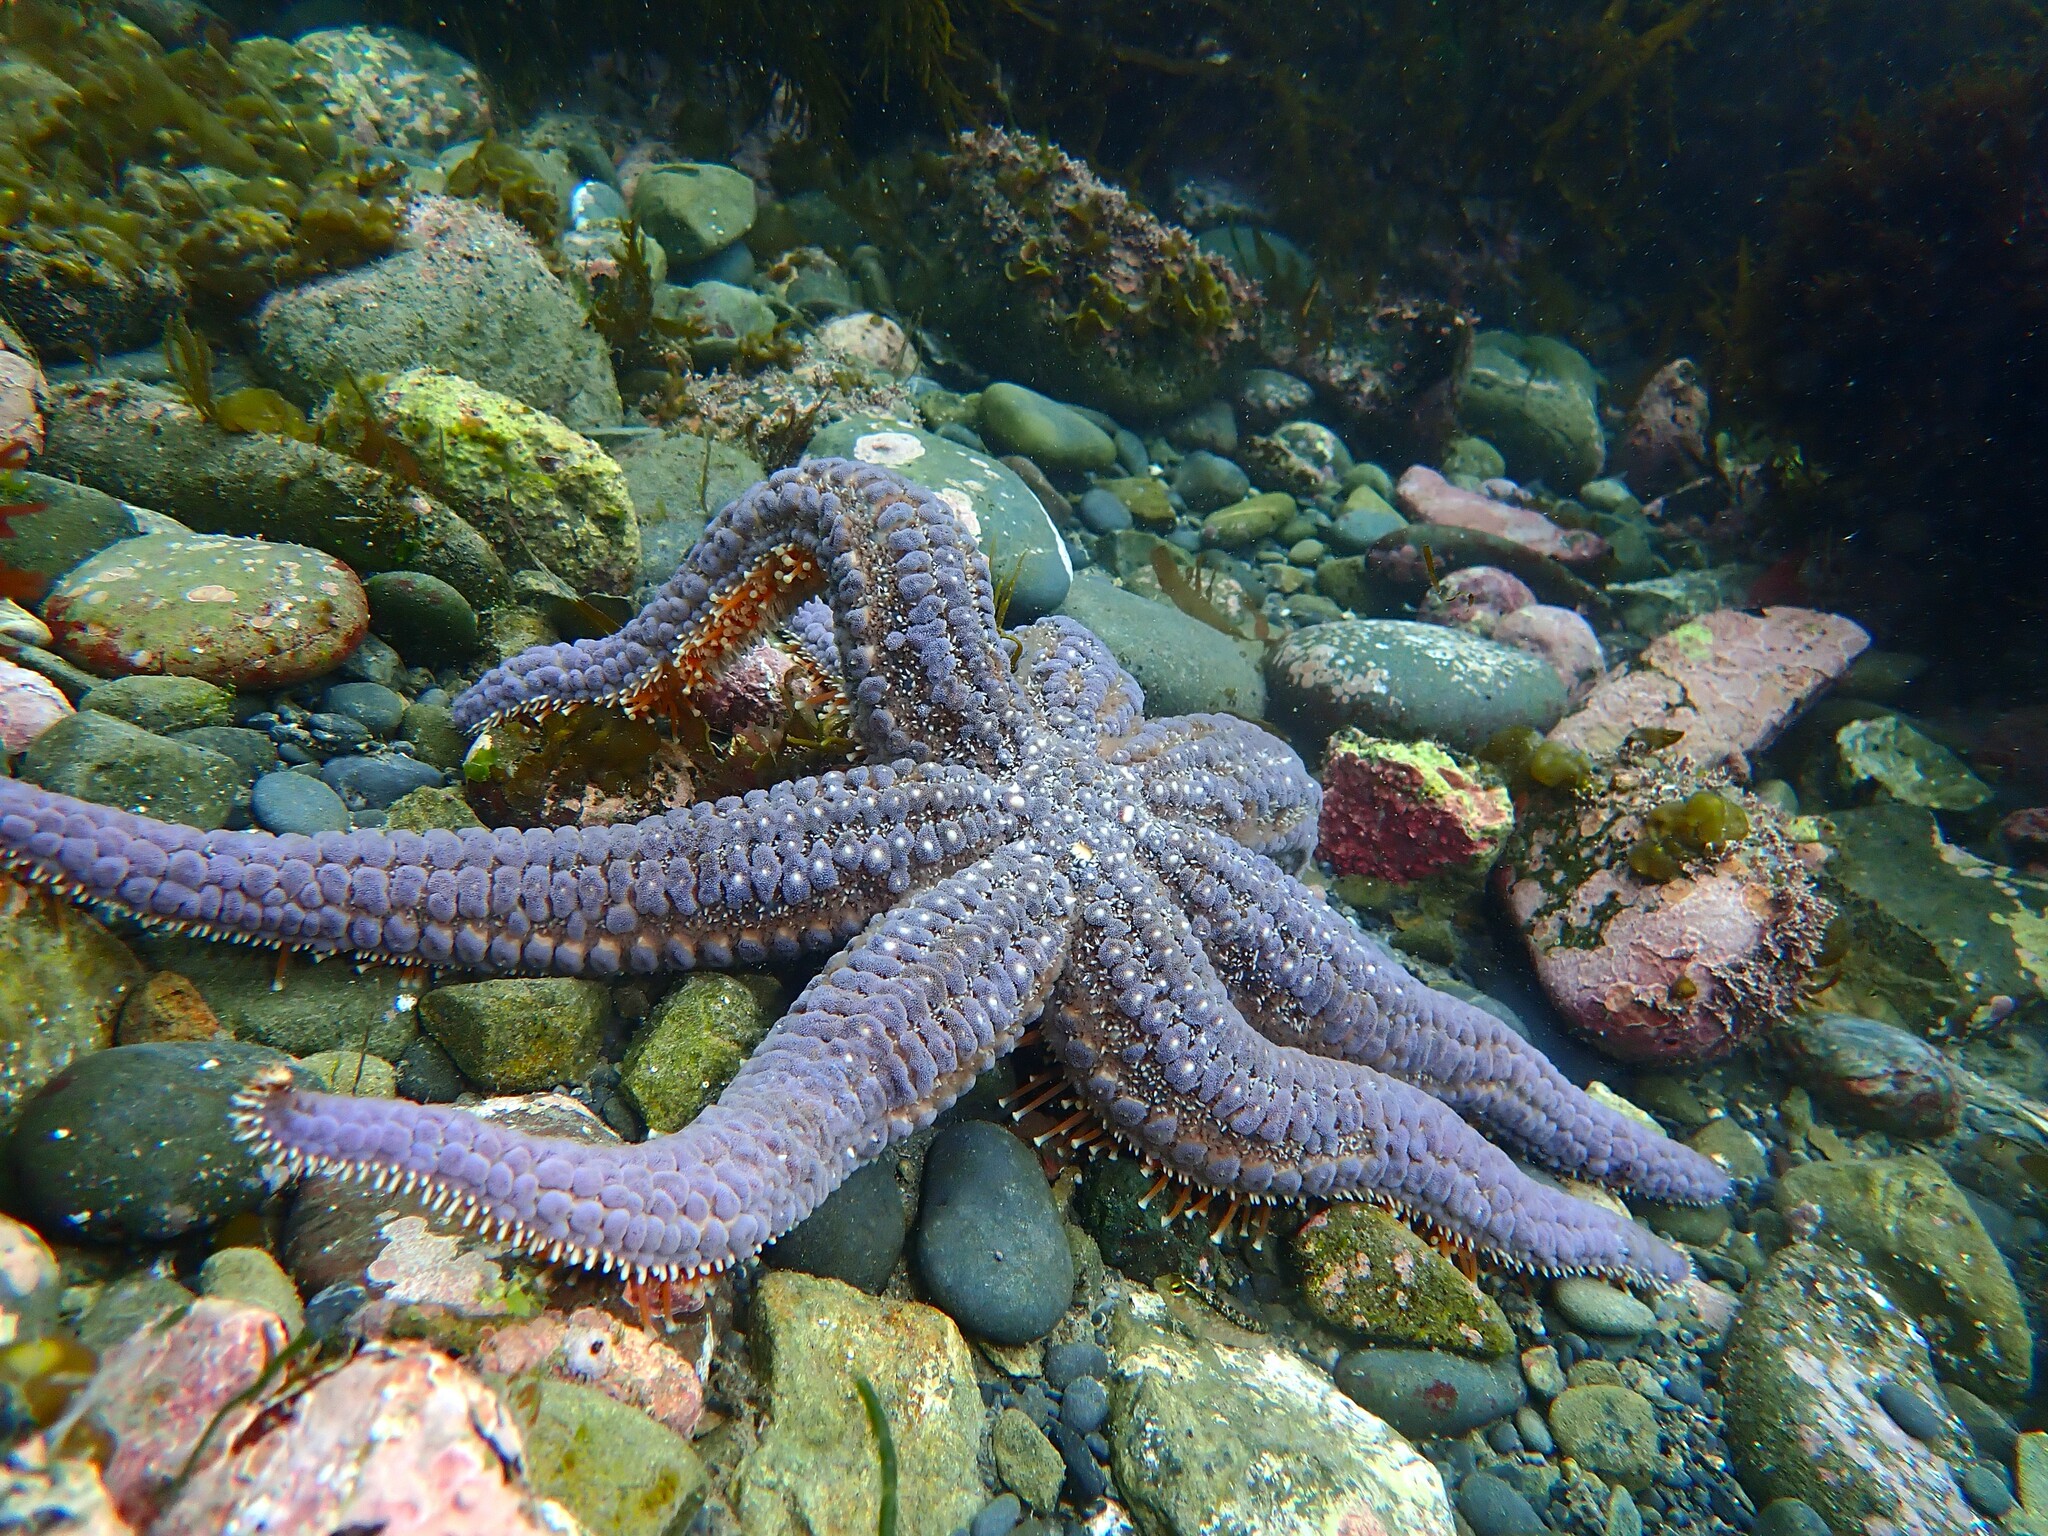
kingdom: Animalia
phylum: Echinodermata
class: Asteroidea
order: Forcipulatida
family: Asteriidae
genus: Astrostole
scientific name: Astrostole scabra
